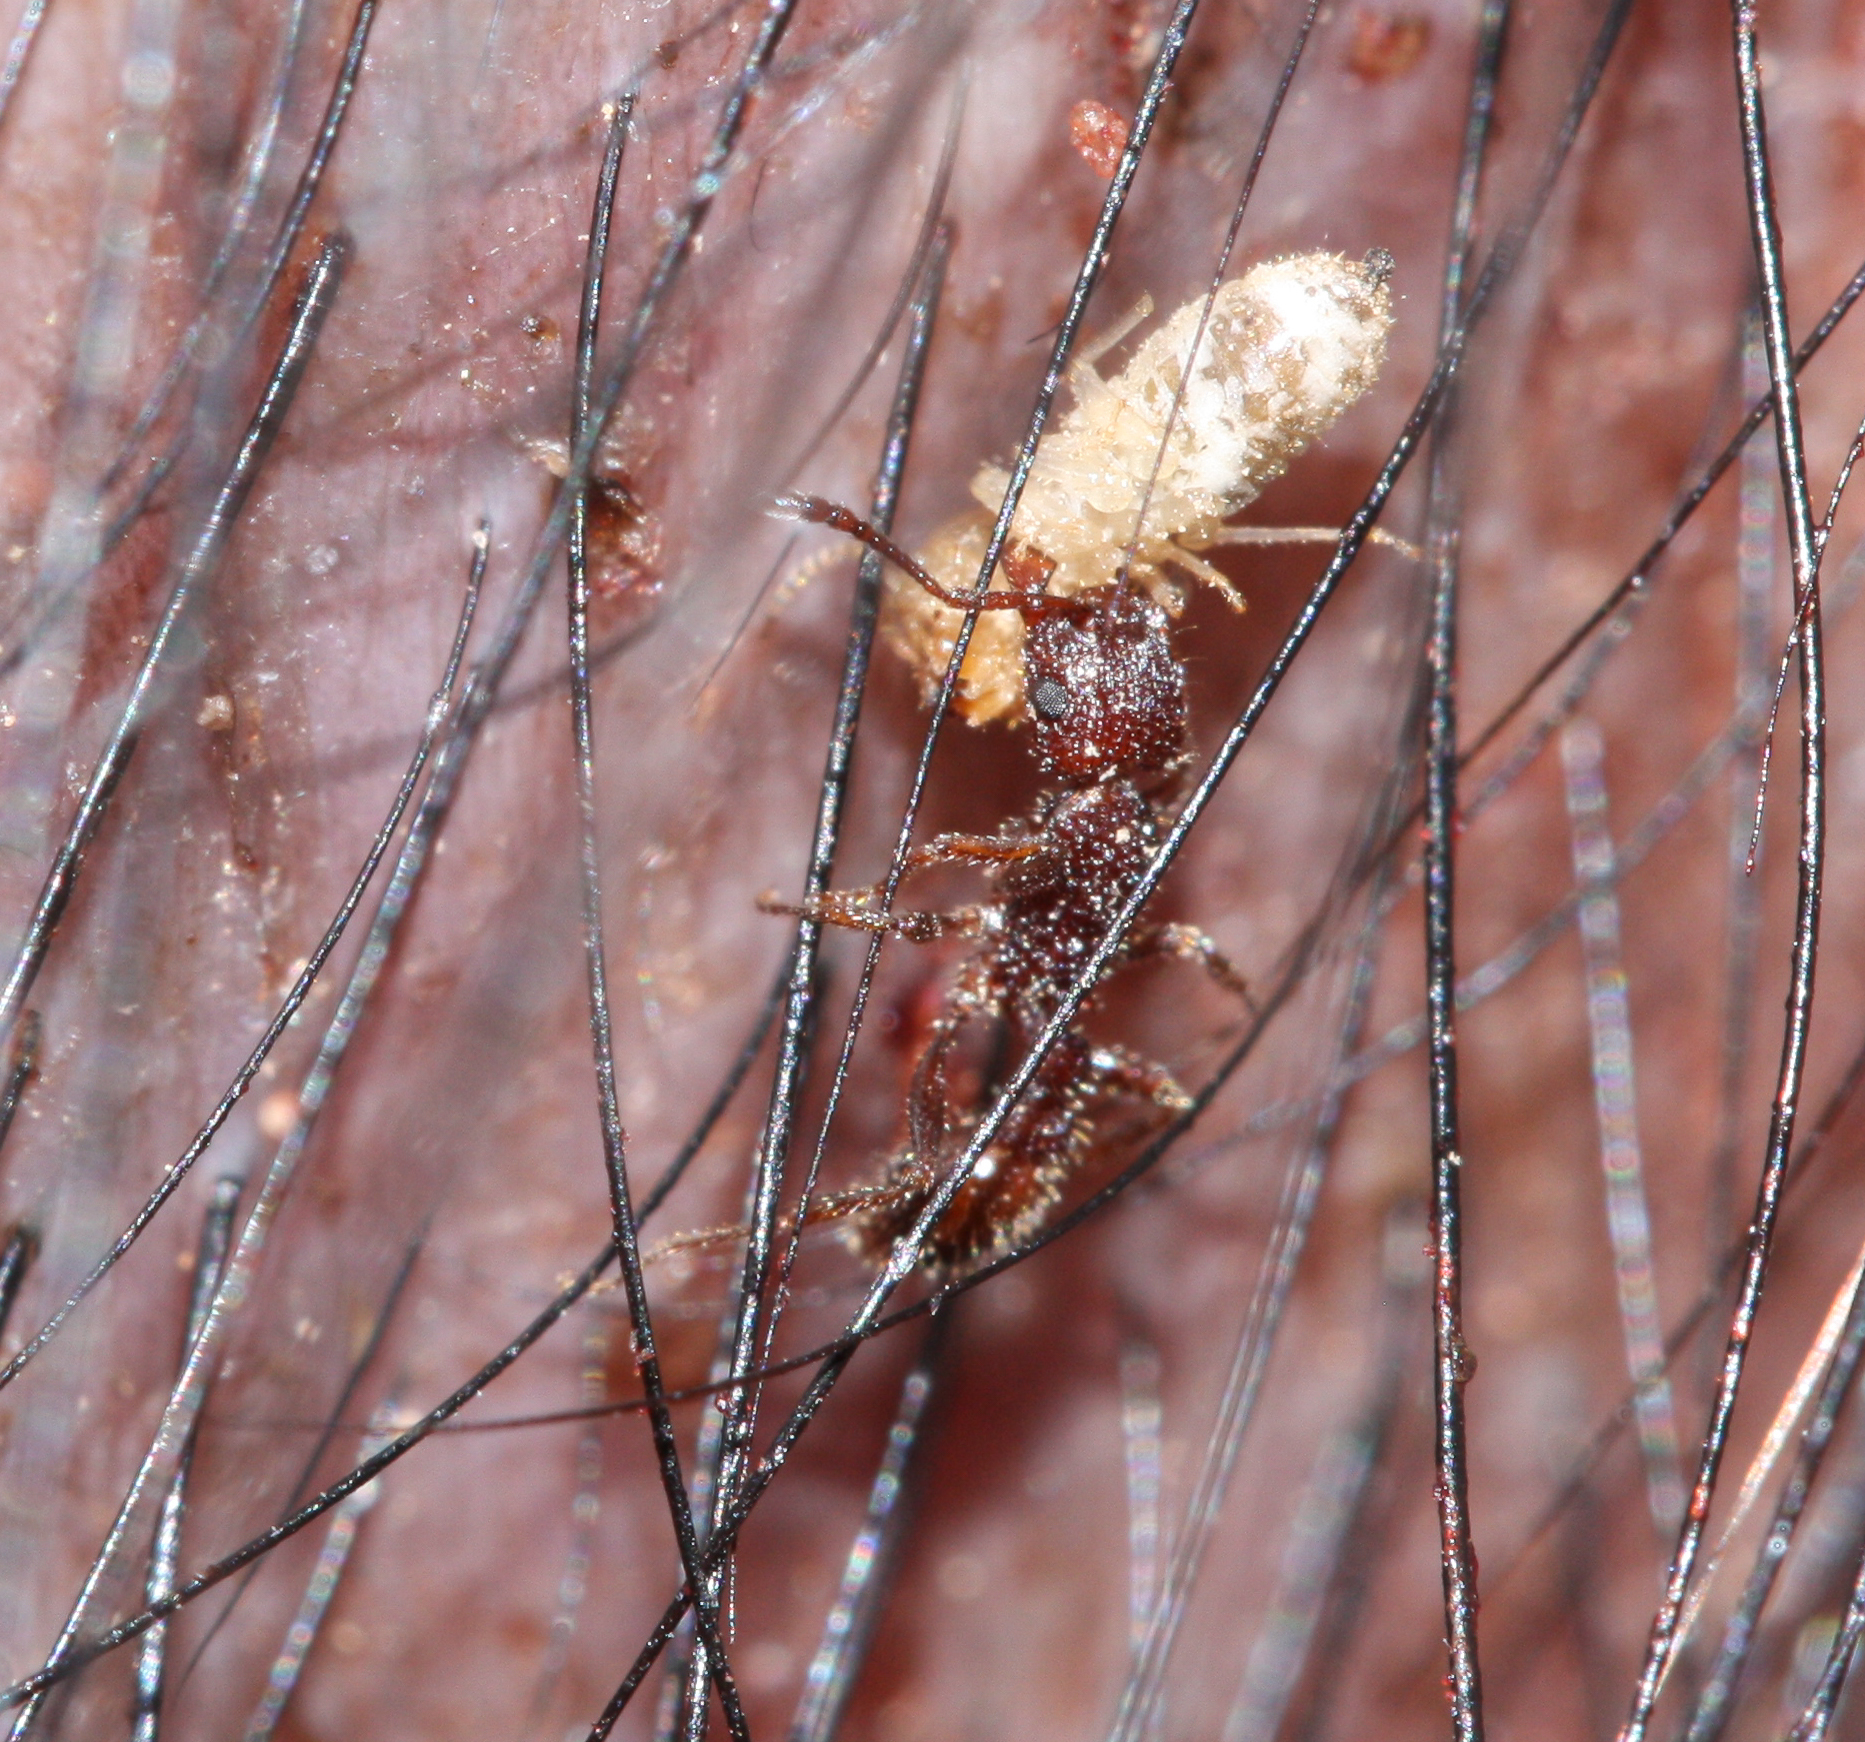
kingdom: Animalia
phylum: Arthropoda
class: Insecta
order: Hymenoptera
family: Formicidae
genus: Tetramorium
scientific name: Tetramorium hispidum
